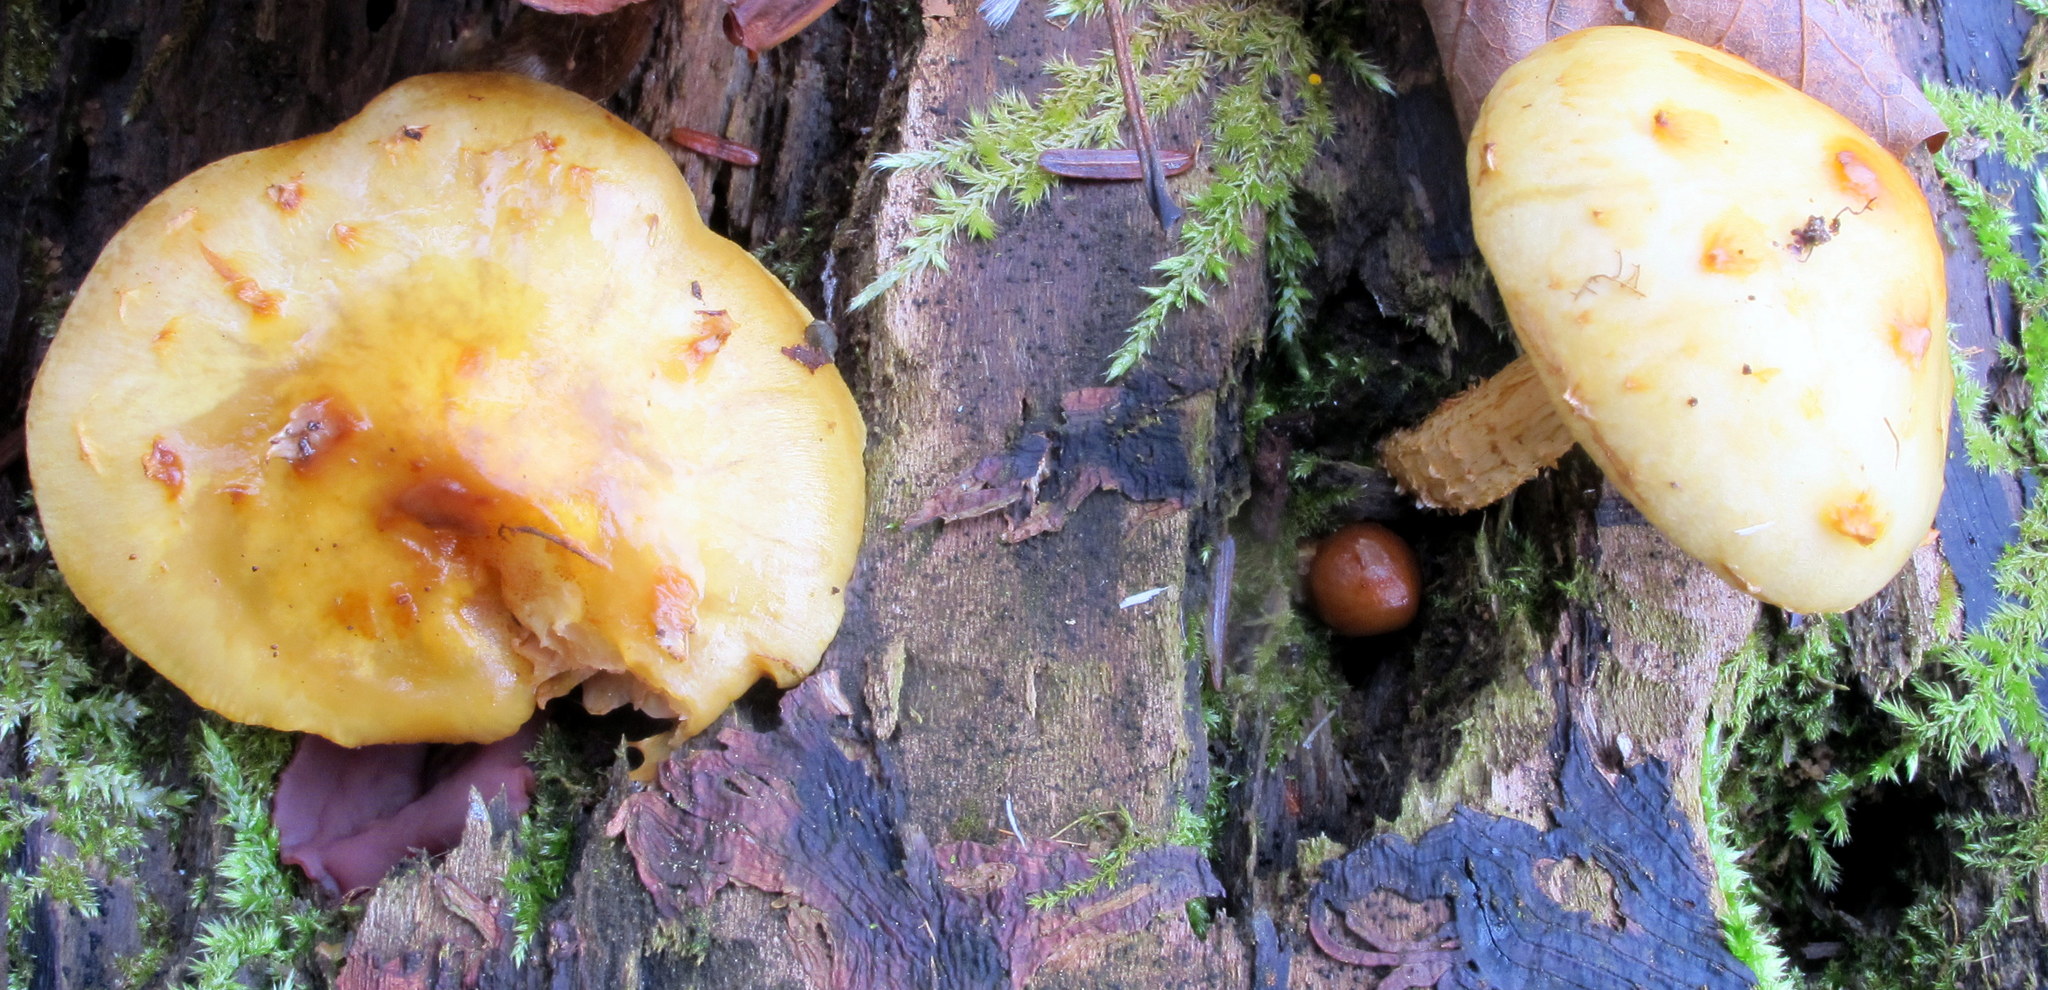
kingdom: Fungi
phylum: Basidiomycota
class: Agaricomycetes
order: Agaricales
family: Strophariaceae
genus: Pholiota
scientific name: Pholiota aurivella
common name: Golden scalycap
